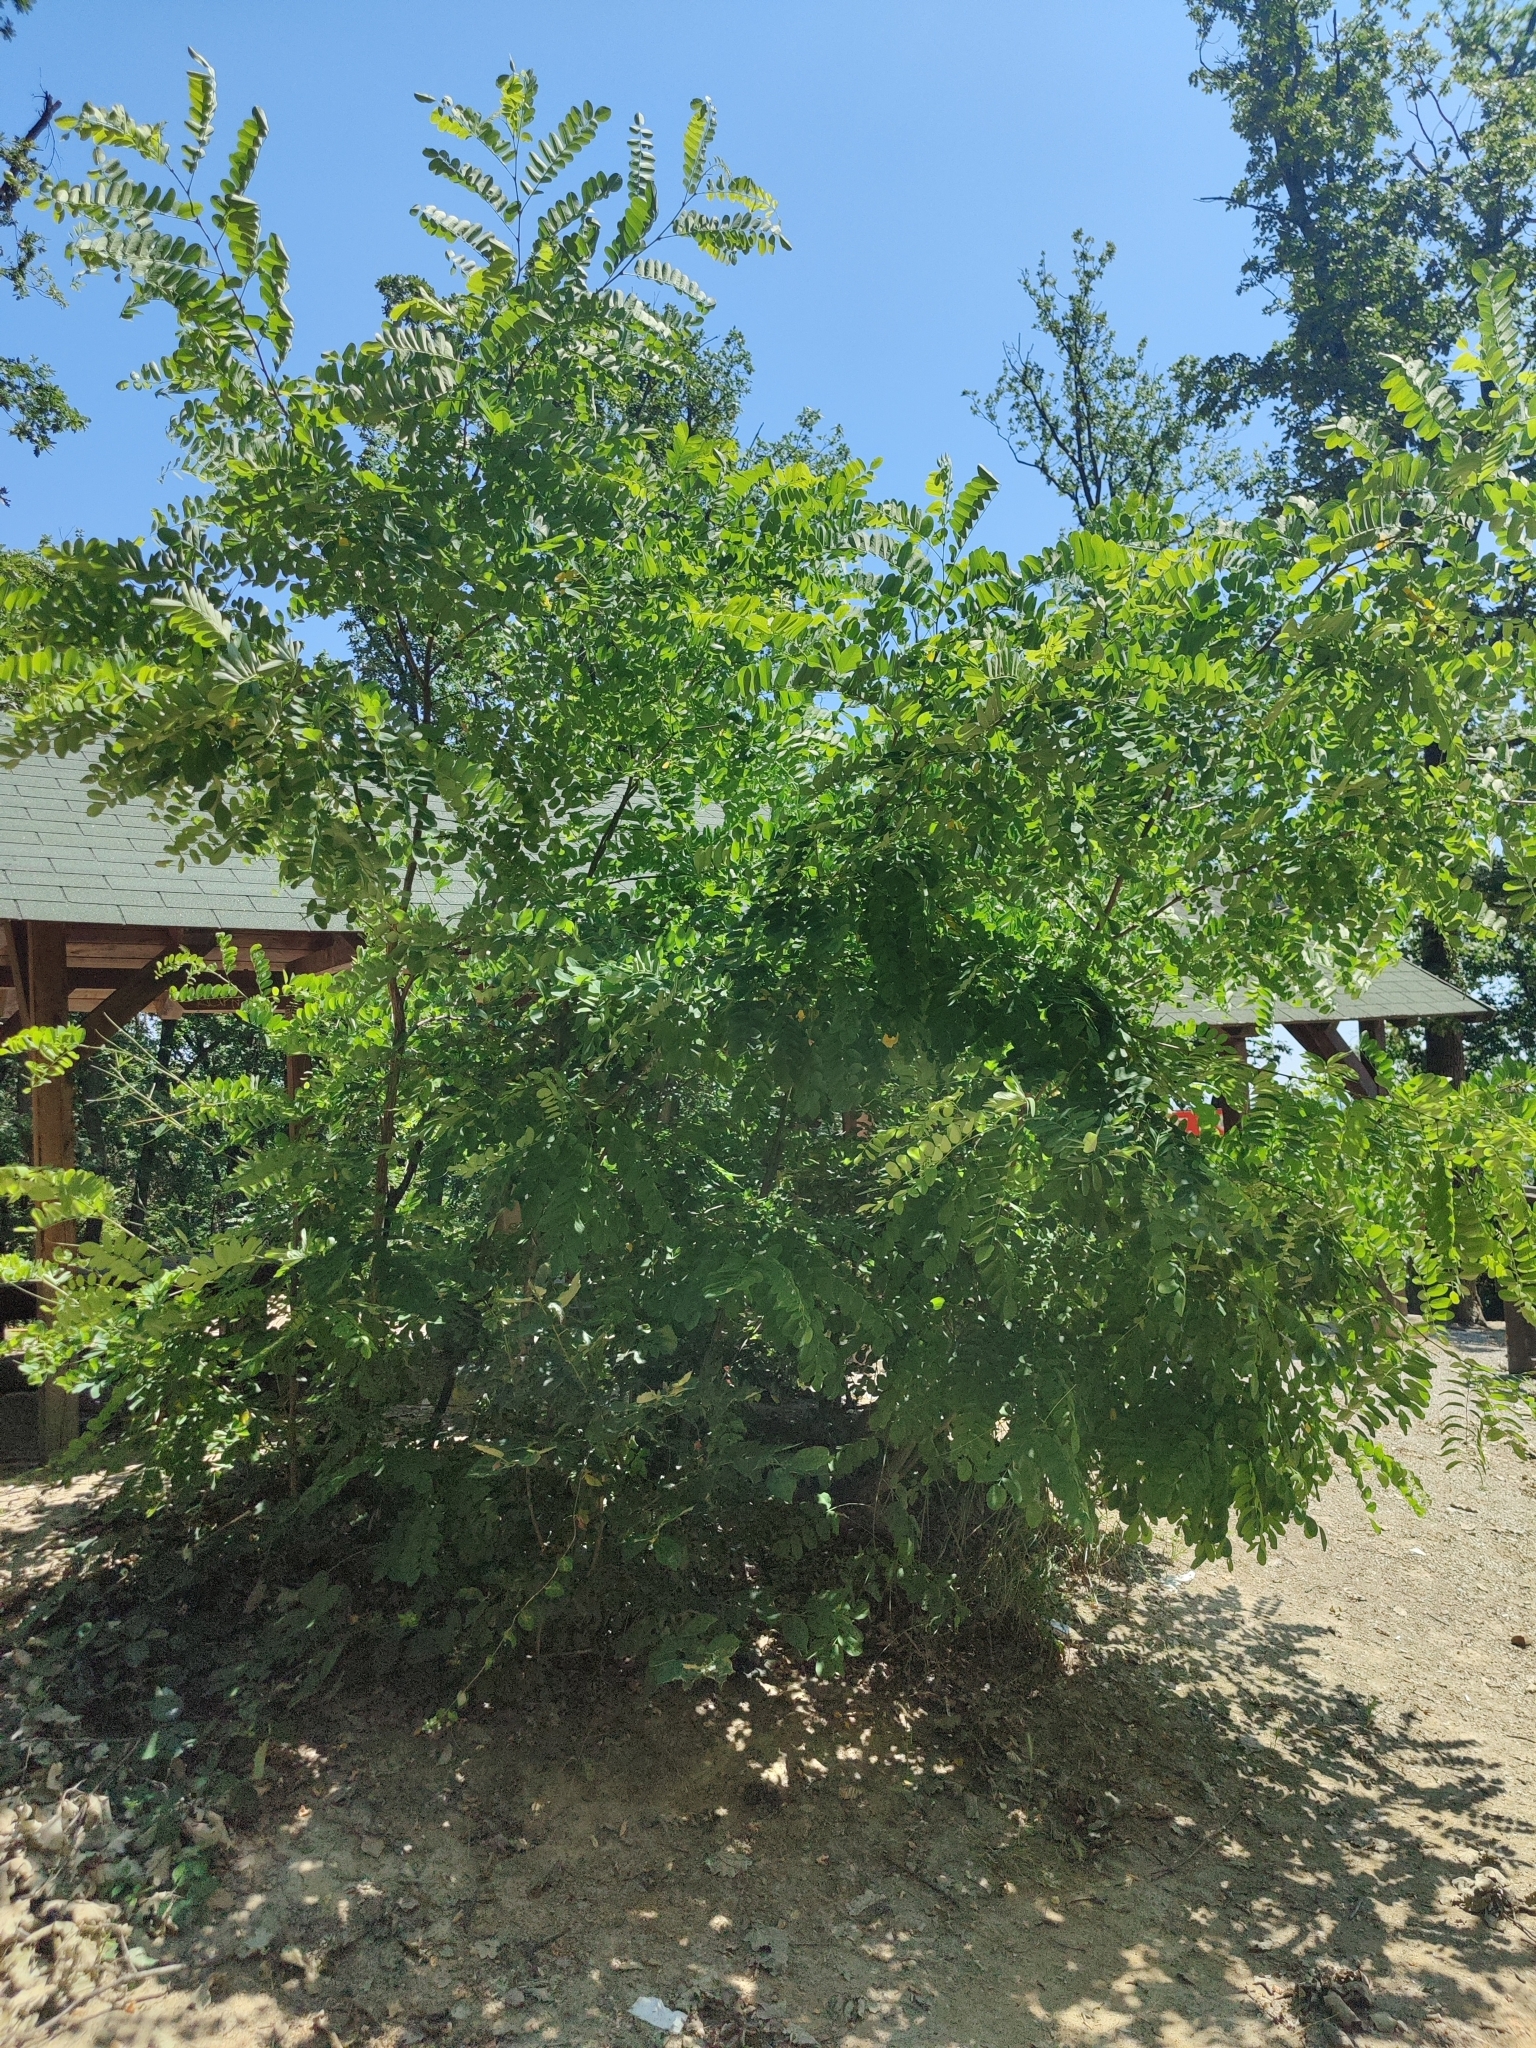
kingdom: Plantae
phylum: Tracheophyta
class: Magnoliopsida
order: Fabales
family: Fabaceae
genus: Robinia
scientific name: Robinia pseudoacacia
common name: Black locust
